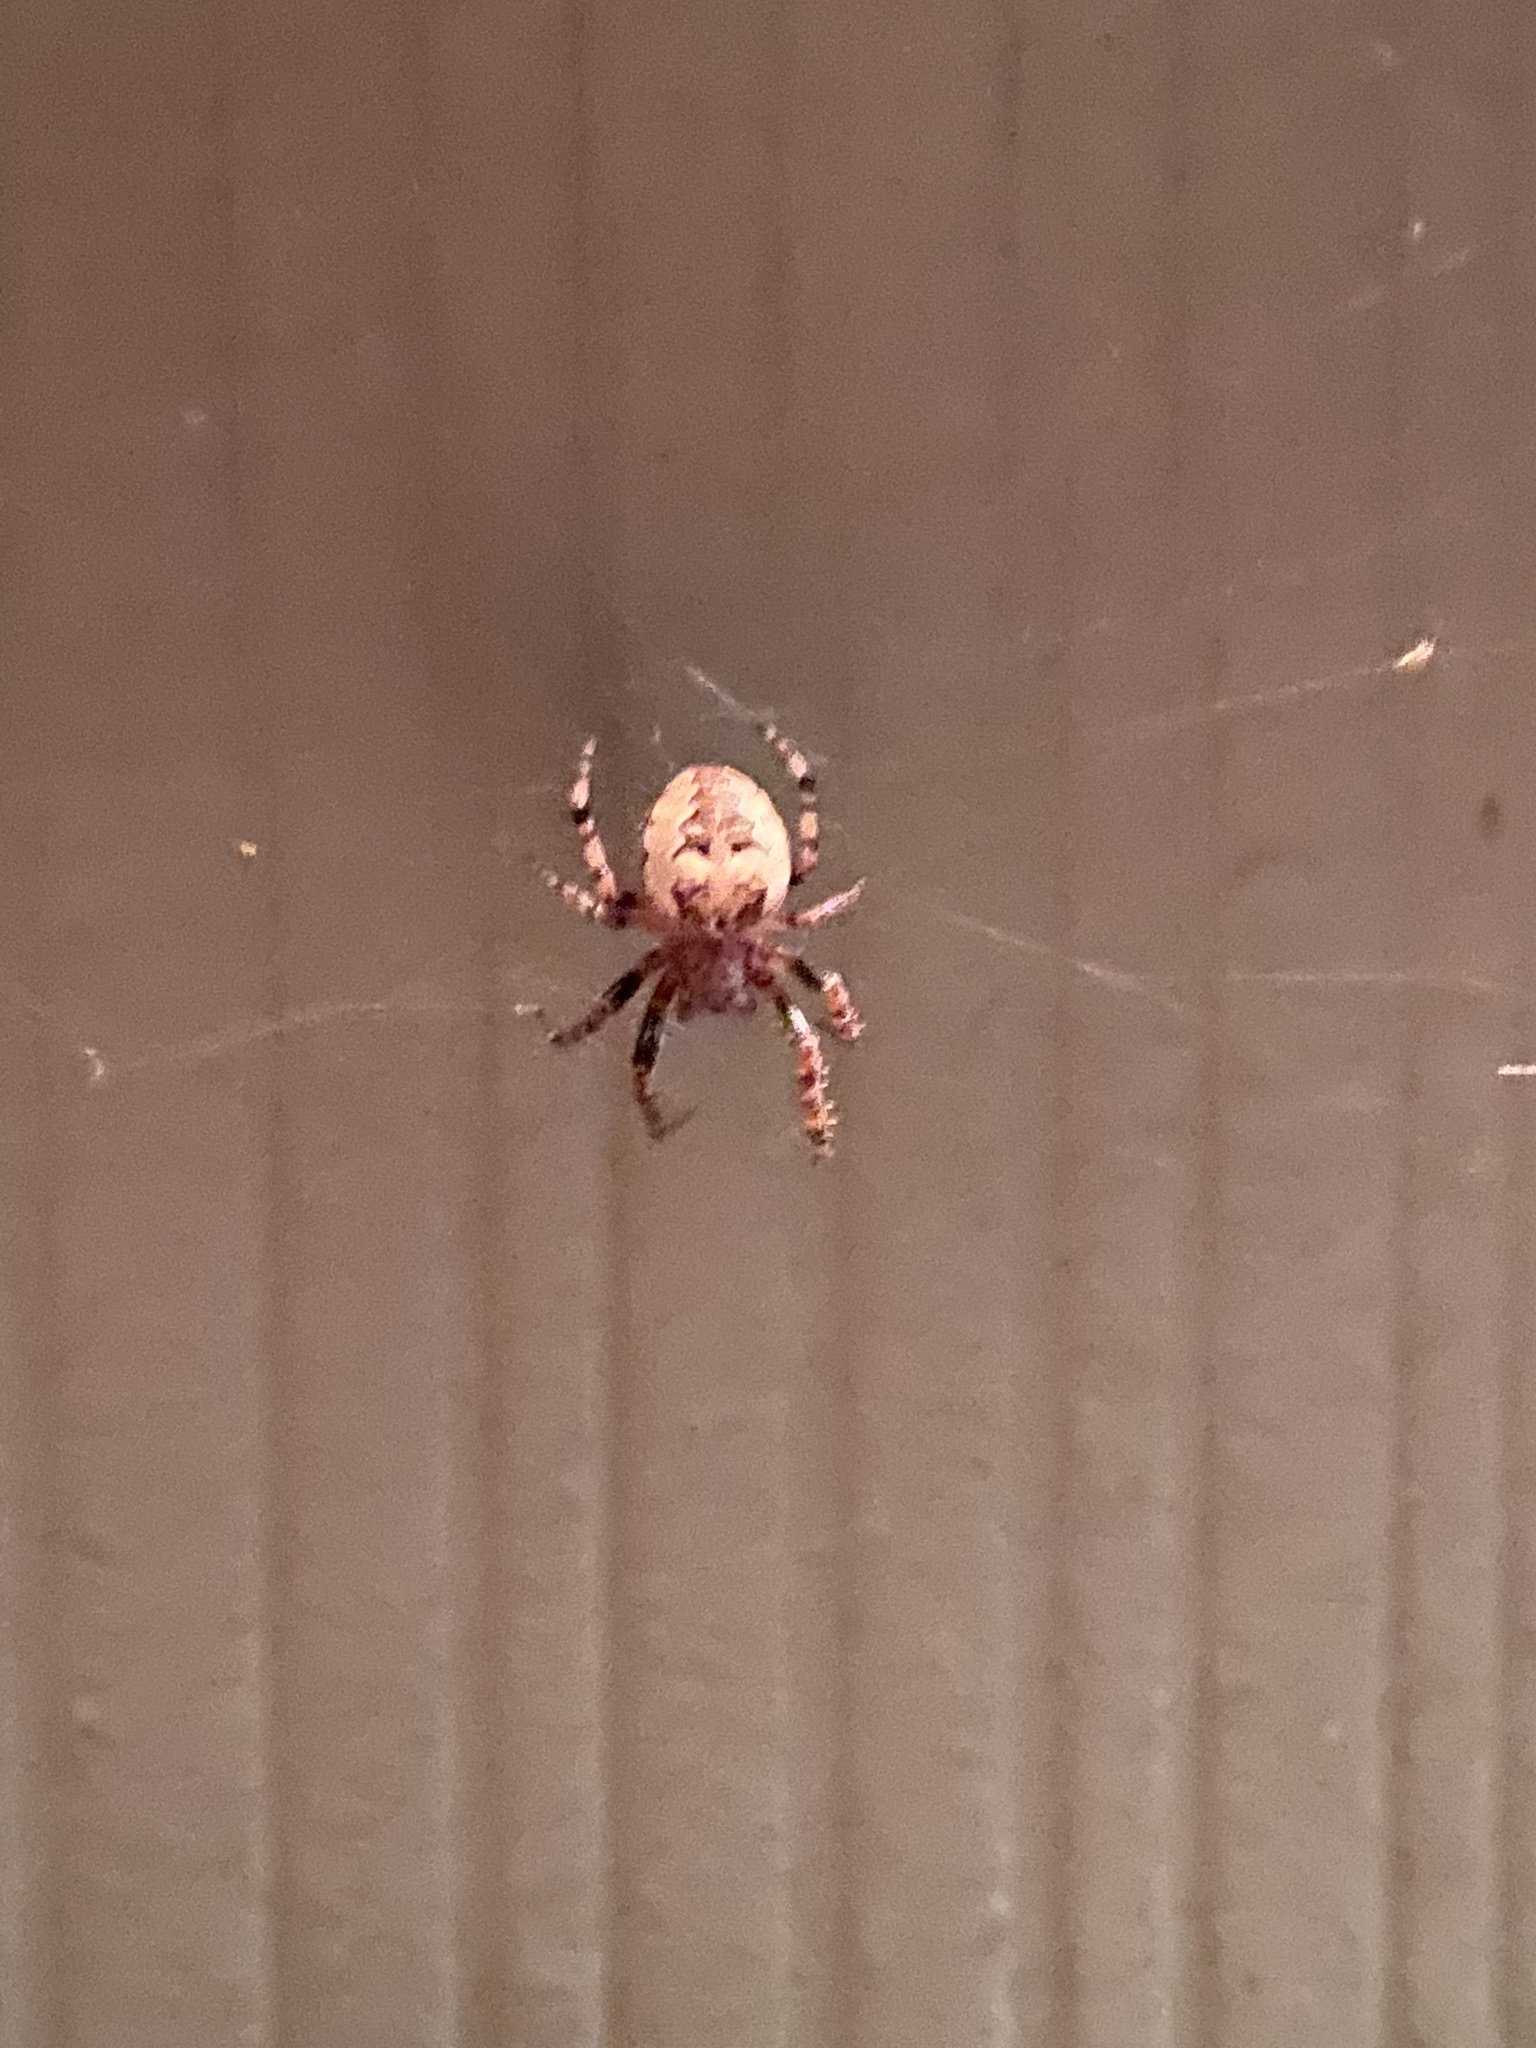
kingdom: Animalia
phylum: Arthropoda
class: Arachnida
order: Araneae
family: Araneidae
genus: Larinioides
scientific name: Larinioides patagiatus
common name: Ornamental orbweaver
